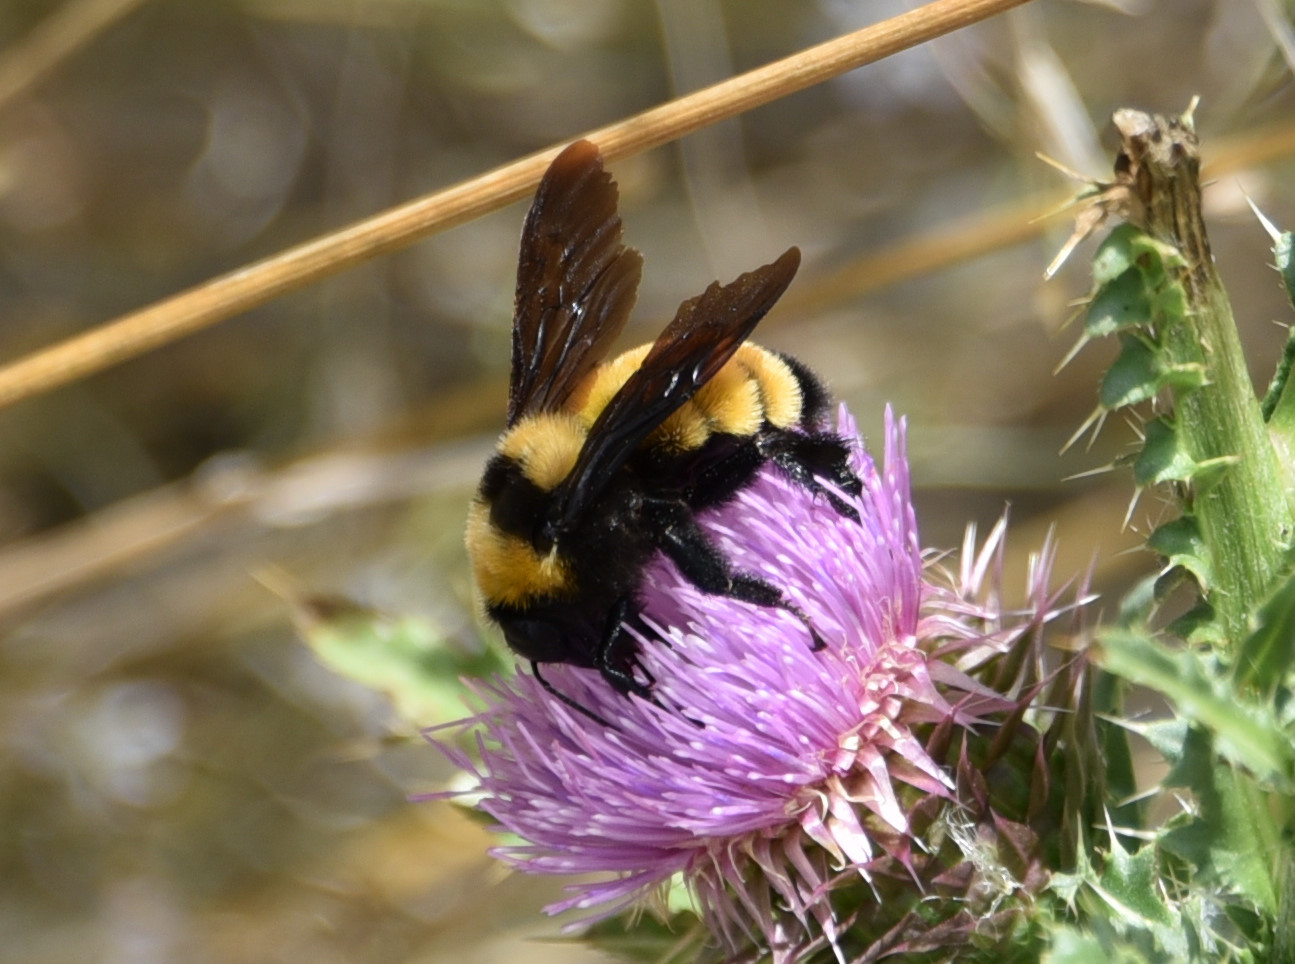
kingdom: Animalia
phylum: Arthropoda
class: Insecta
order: Hymenoptera
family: Apidae
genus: Bombus
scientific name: Bombus sonorus
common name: Sonoran bumble bee
